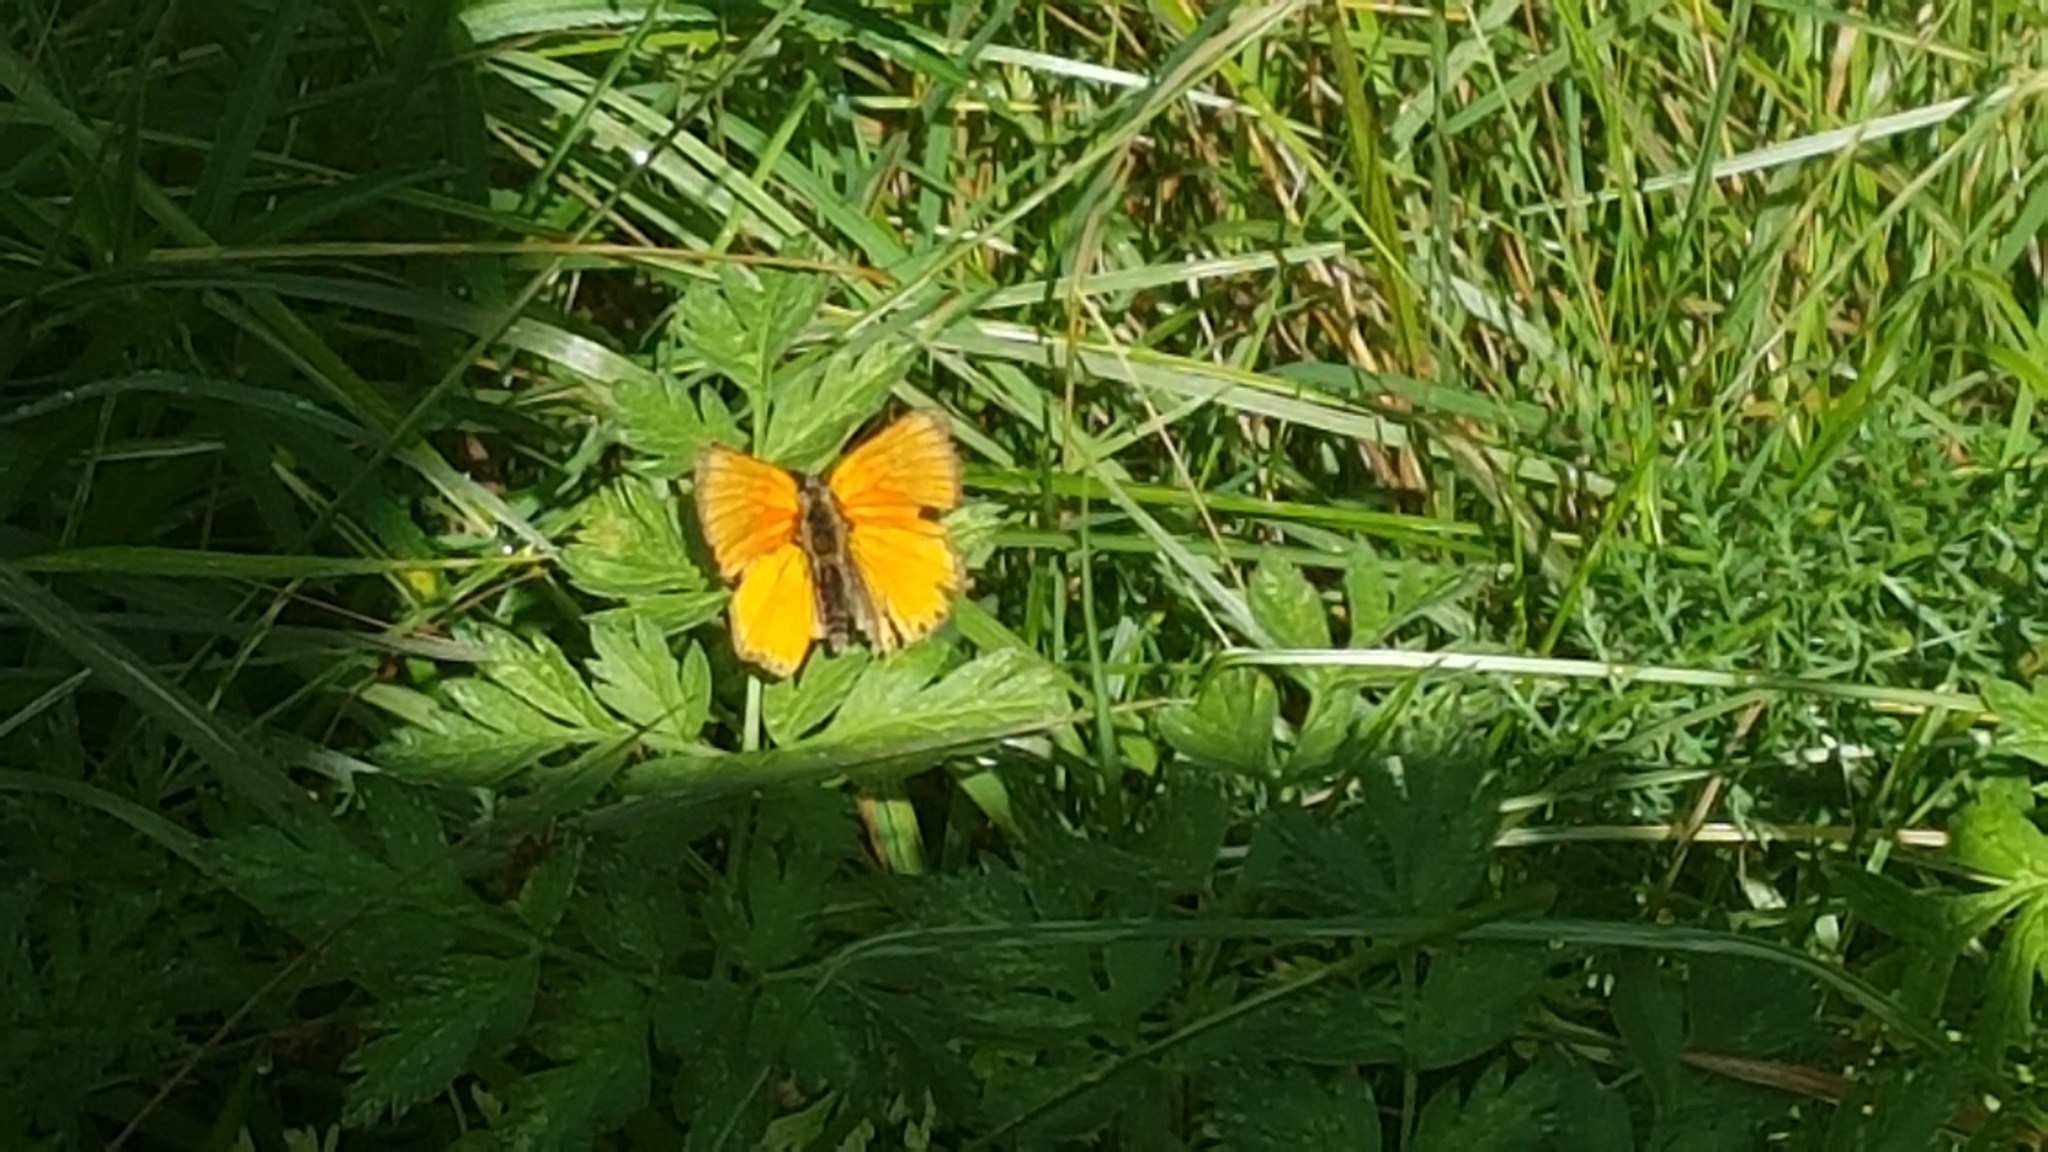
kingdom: Animalia
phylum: Arthropoda
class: Insecta
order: Lepidoptera
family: Lycaenidae
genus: Lycaena
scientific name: Lycaena virgaureae
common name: Scarce copper
